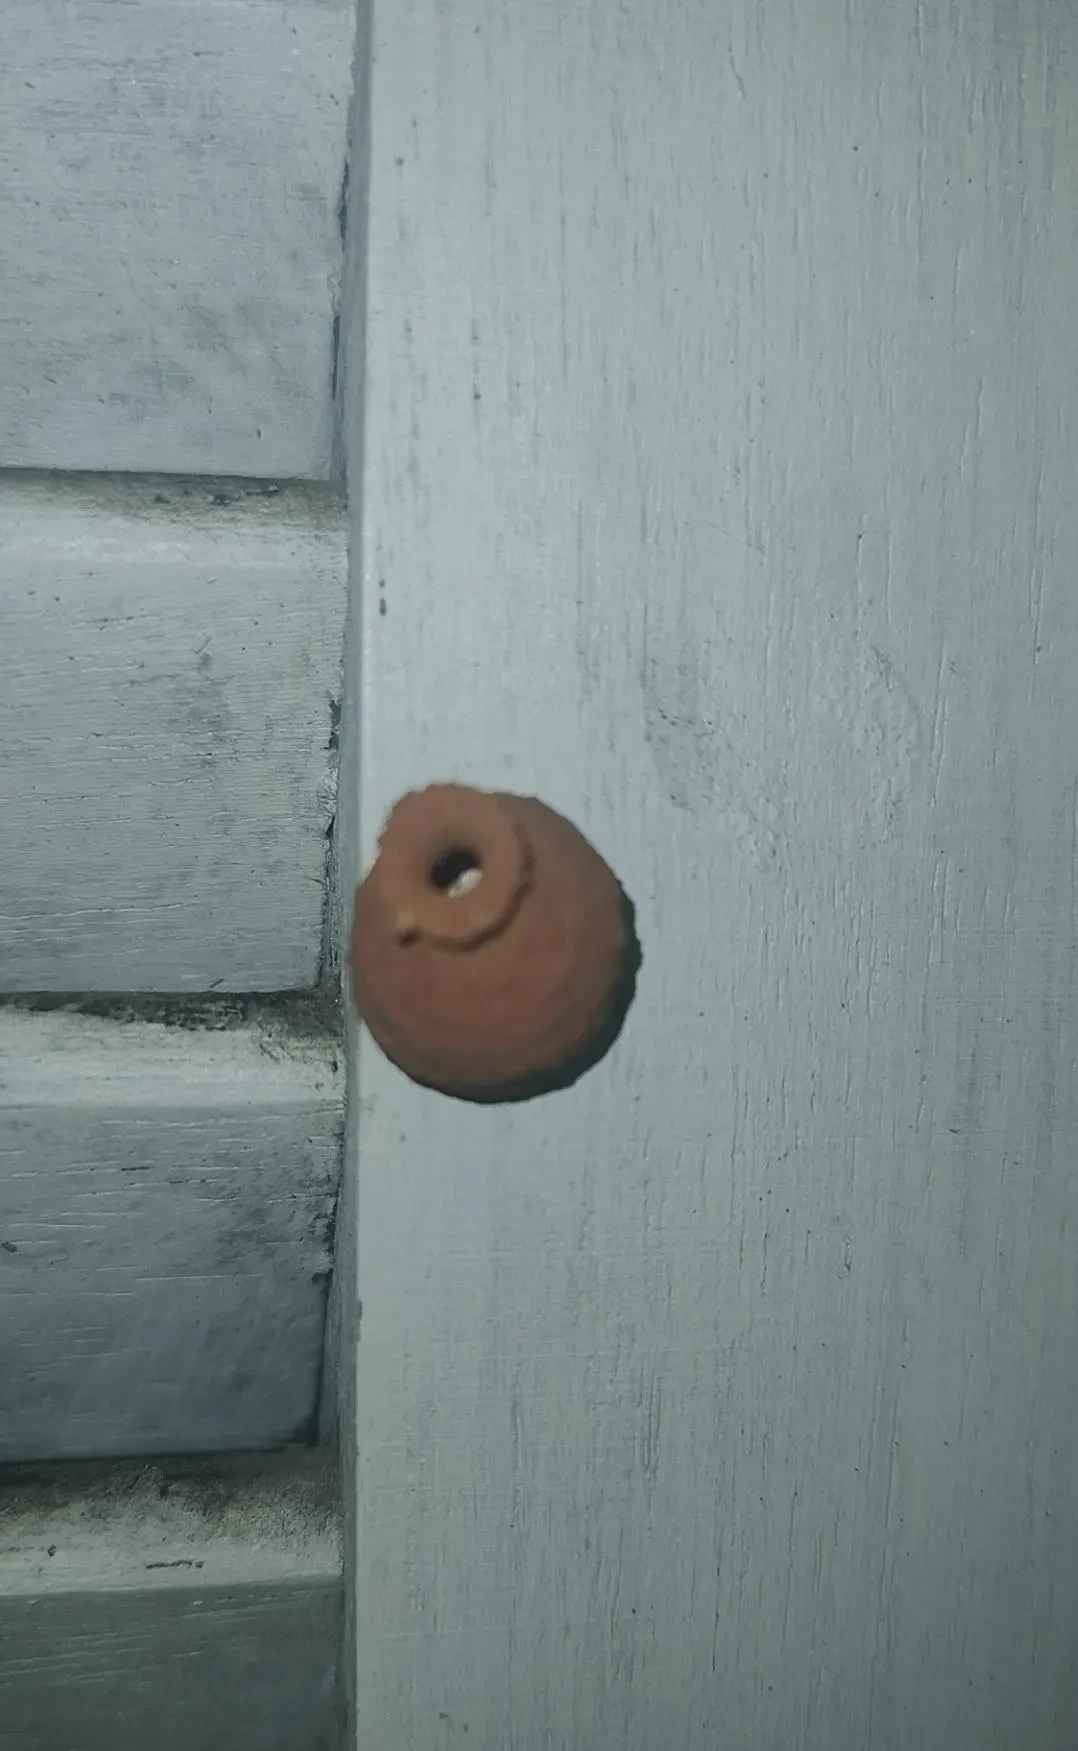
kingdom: Animalia
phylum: Arthropoda
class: Insecta
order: Hymenoptera
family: Eumenidae
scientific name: Eumenidae
